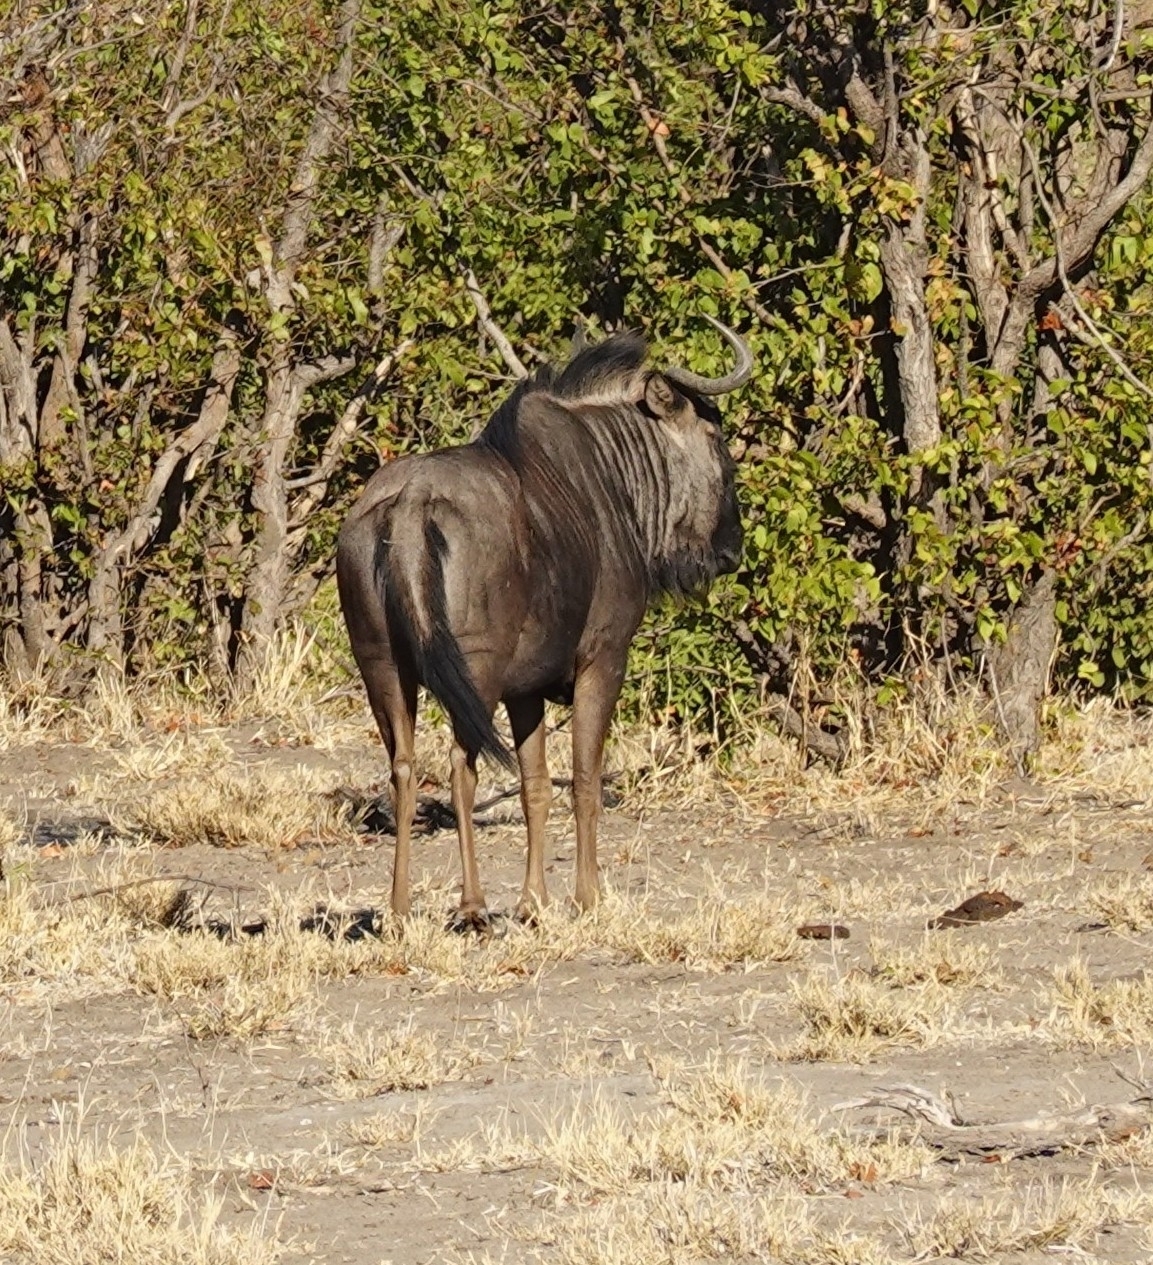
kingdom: Animalia
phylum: Chordata
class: Mammalia
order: Artiodactyla
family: Bovidae
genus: Connochaetes
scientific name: Connochaetes taurinus
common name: Blue wildebeest
